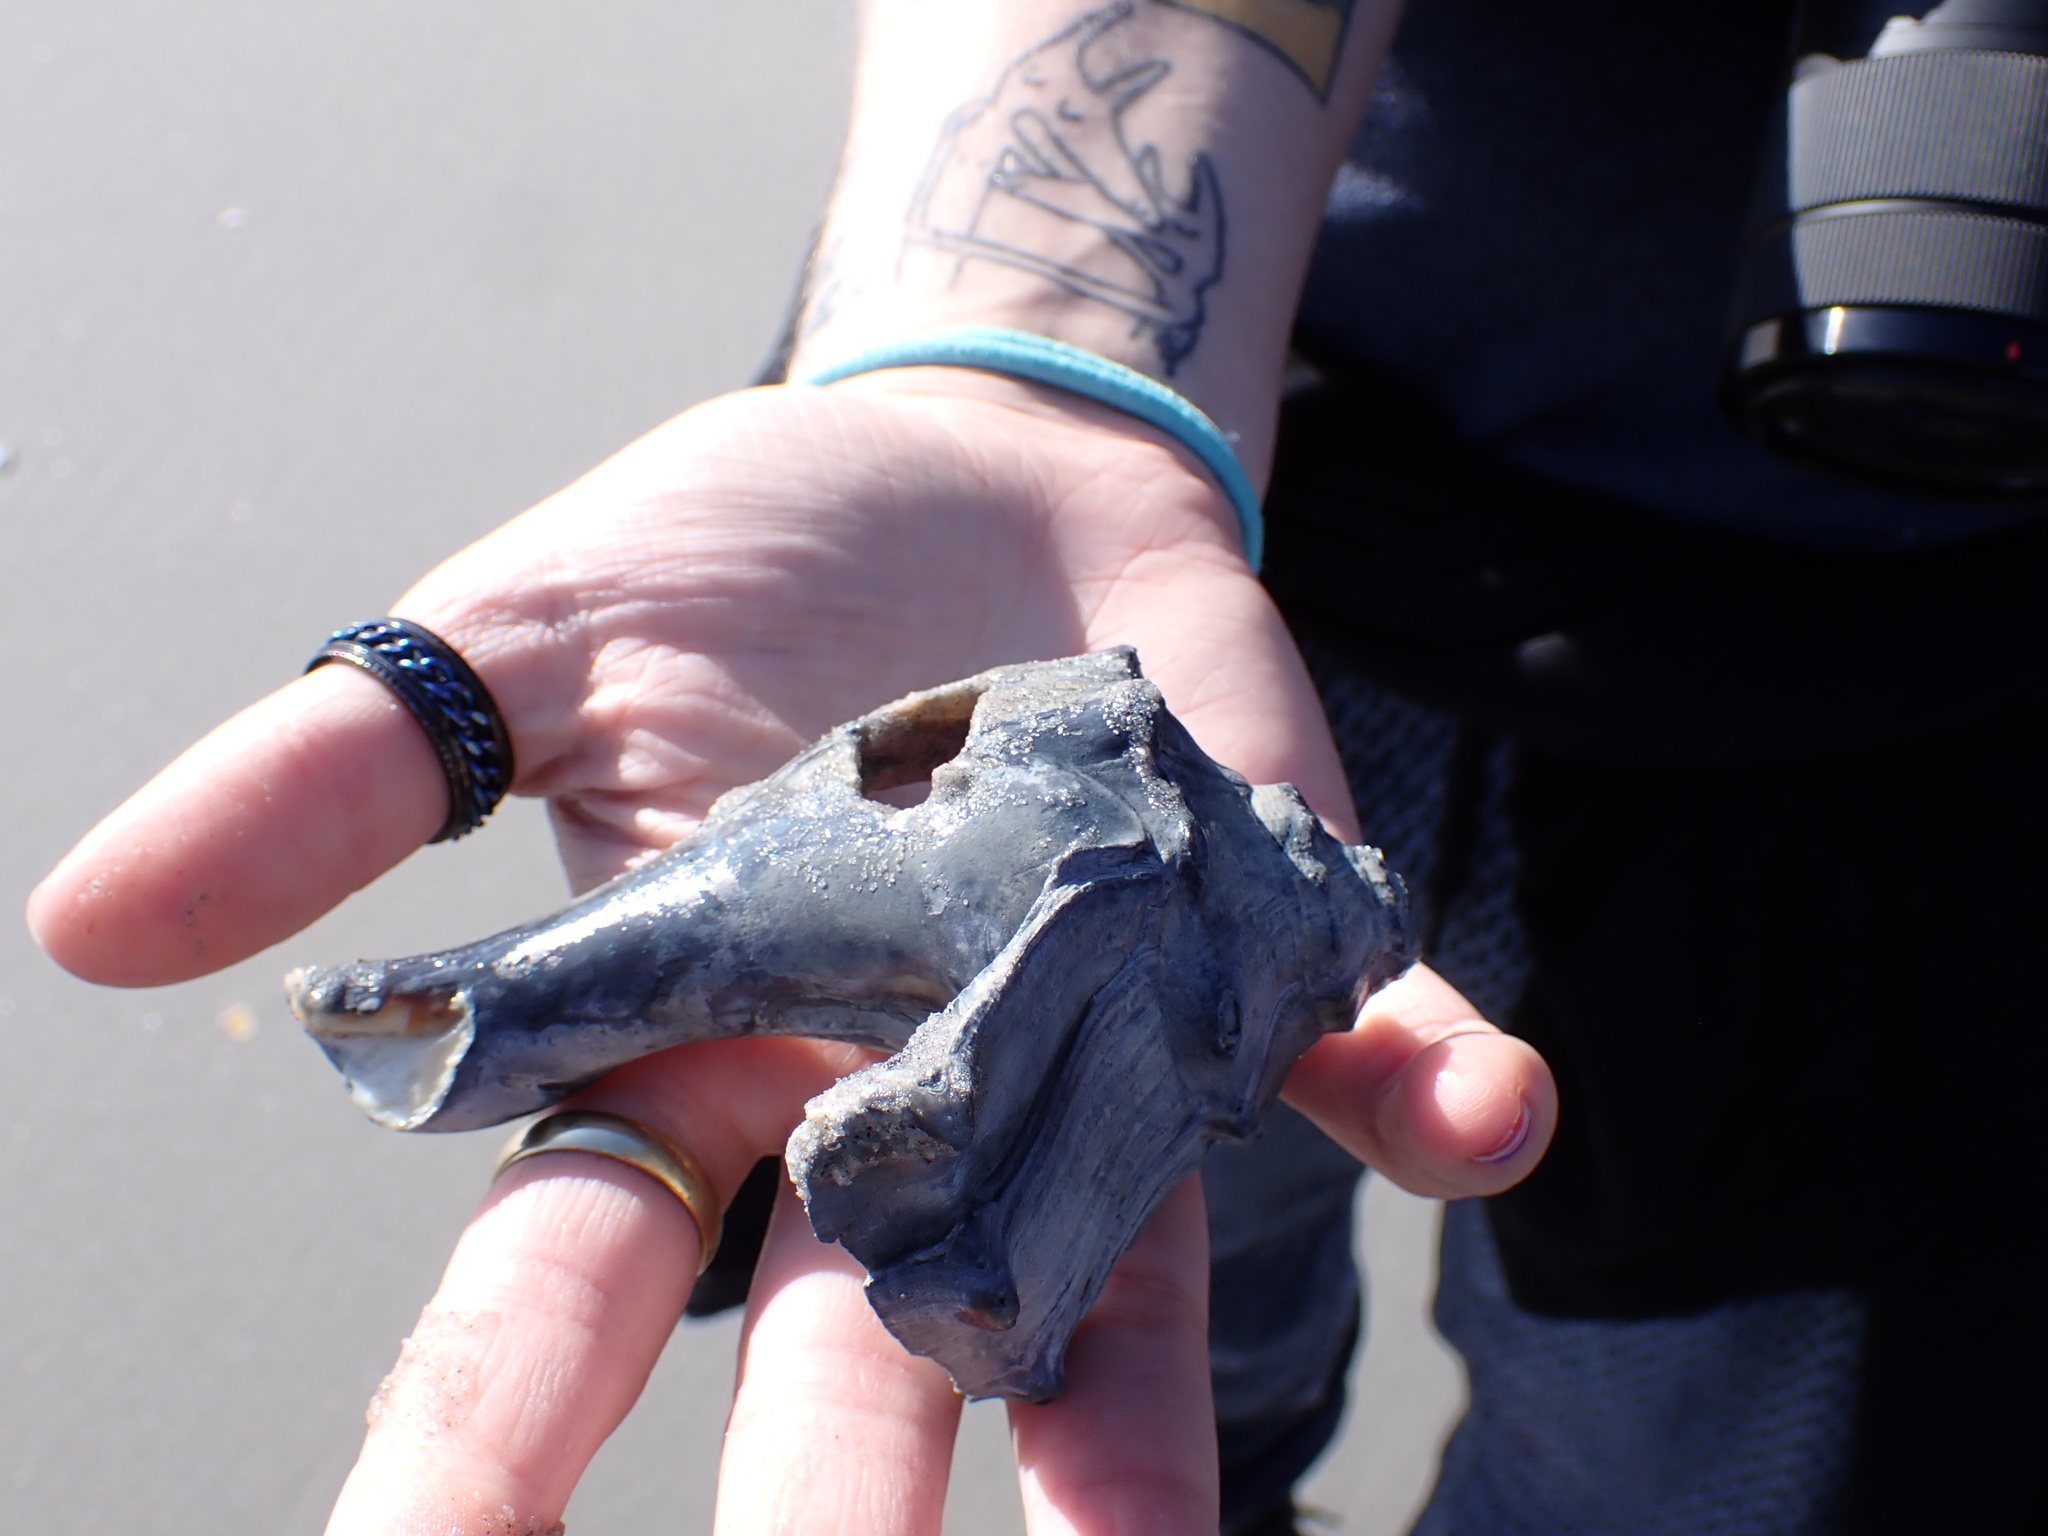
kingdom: Animalia
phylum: Mollusca
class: Gastropoda
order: Neogastropoda
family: Busyconidae
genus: Busycon
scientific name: Busycon carica
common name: Knobbed whelk
